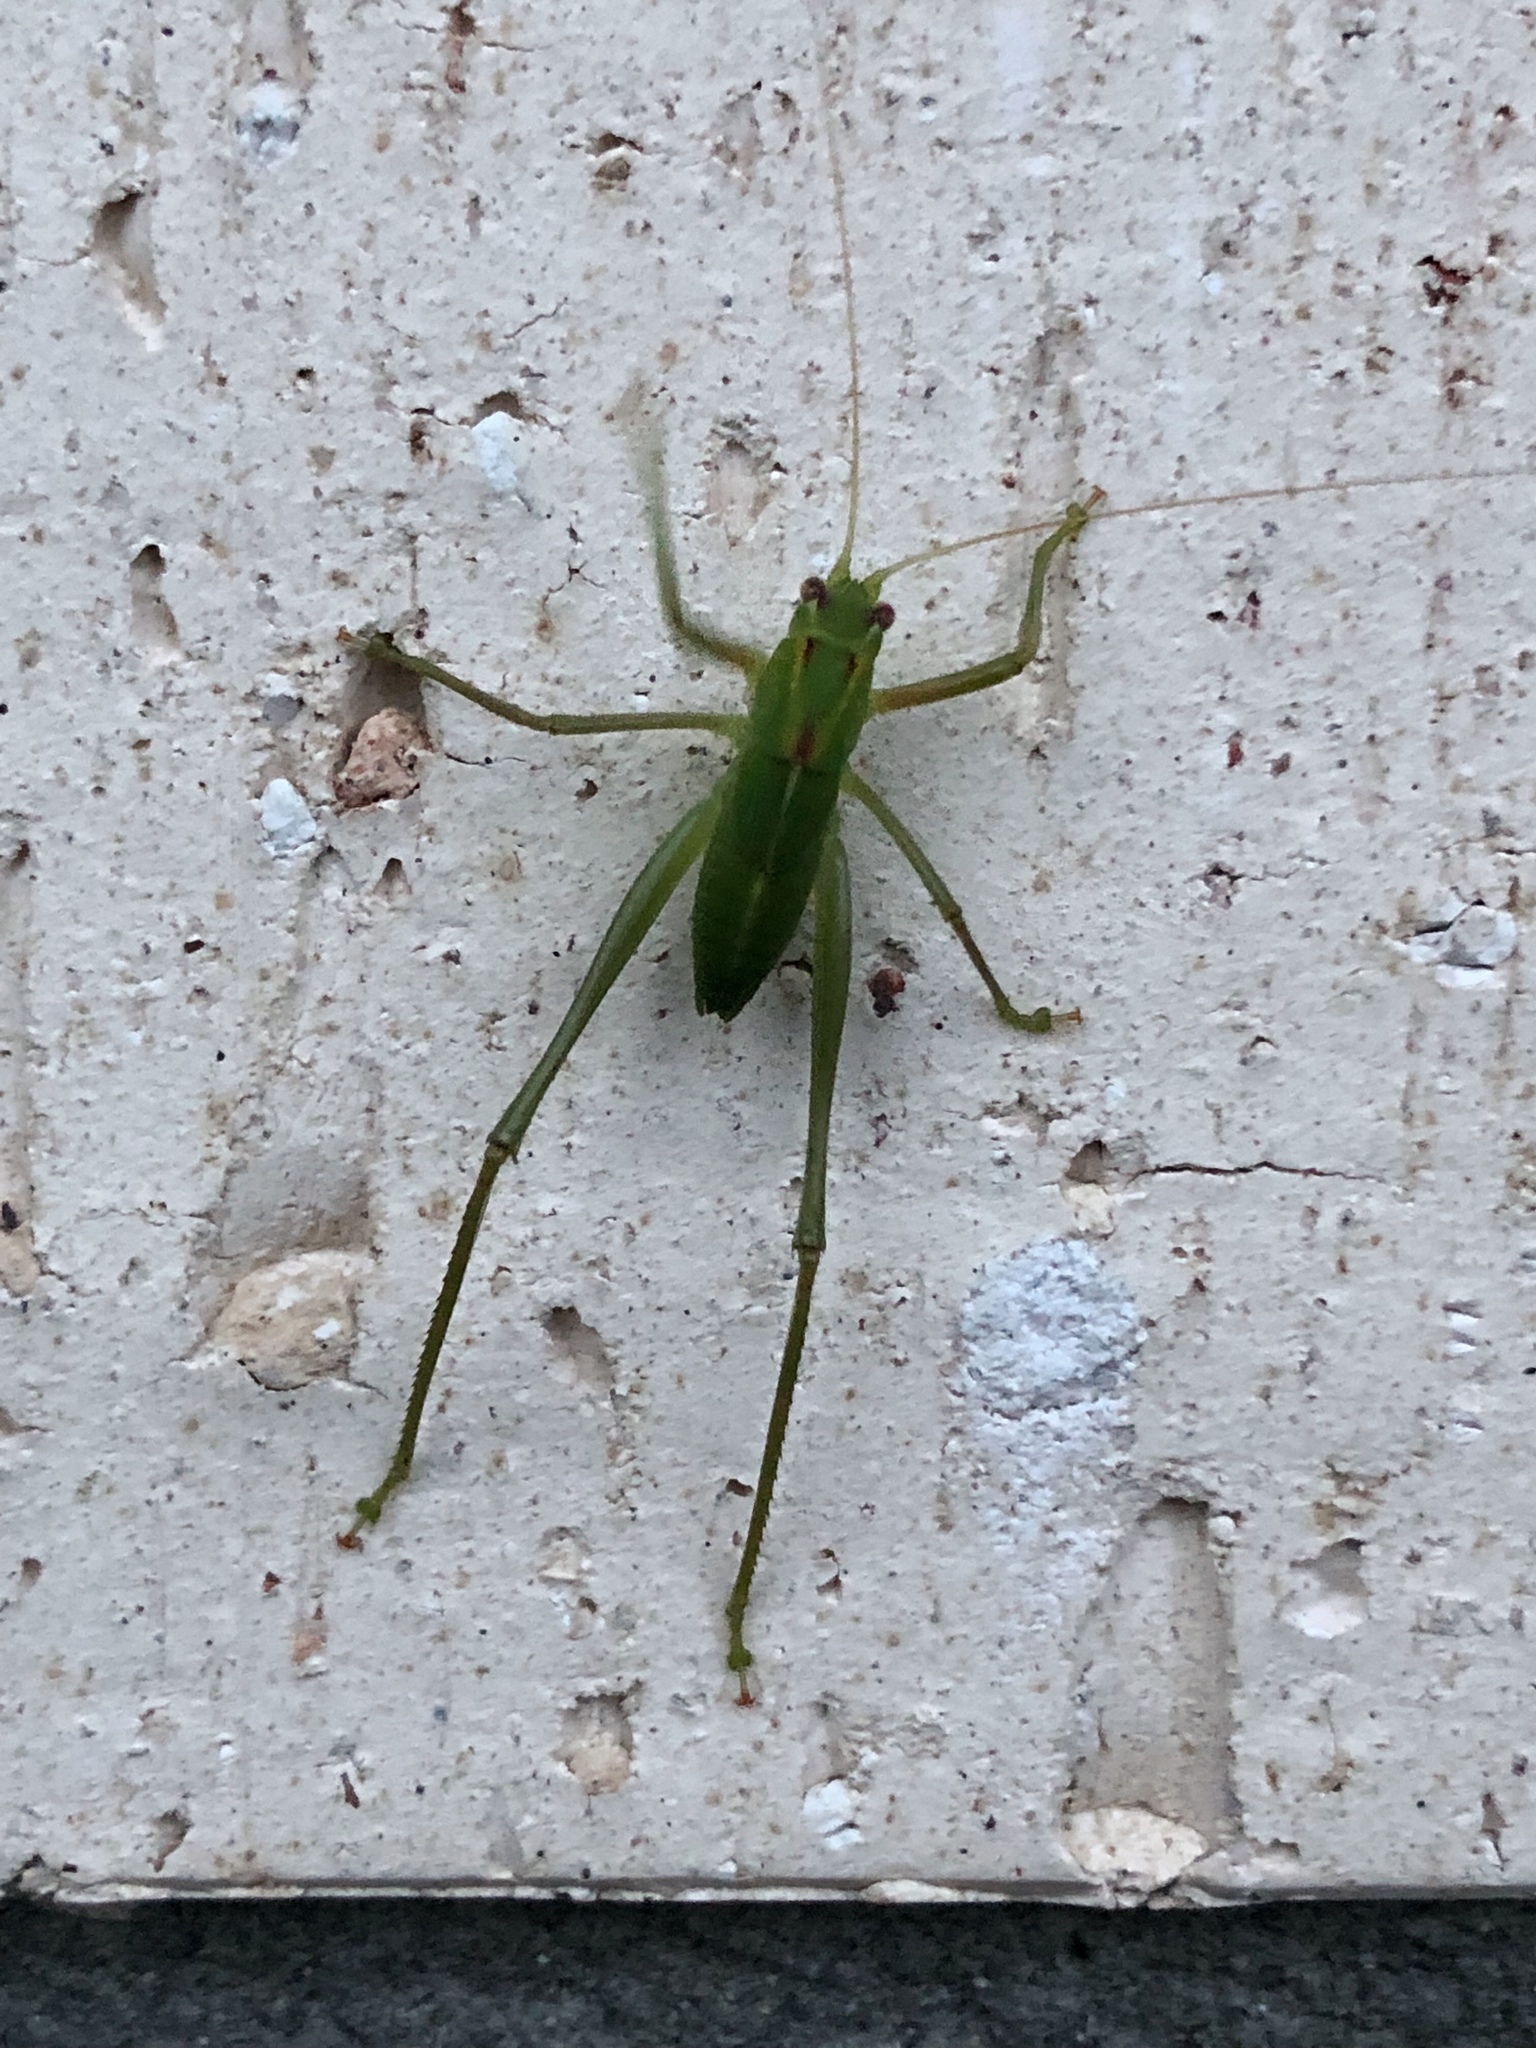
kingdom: Animalia
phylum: Arthropoda
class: Insecta
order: Orthoptera
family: Tettigoniidae
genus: Caedicia
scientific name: Caedicia simplex
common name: Common garden katydid
